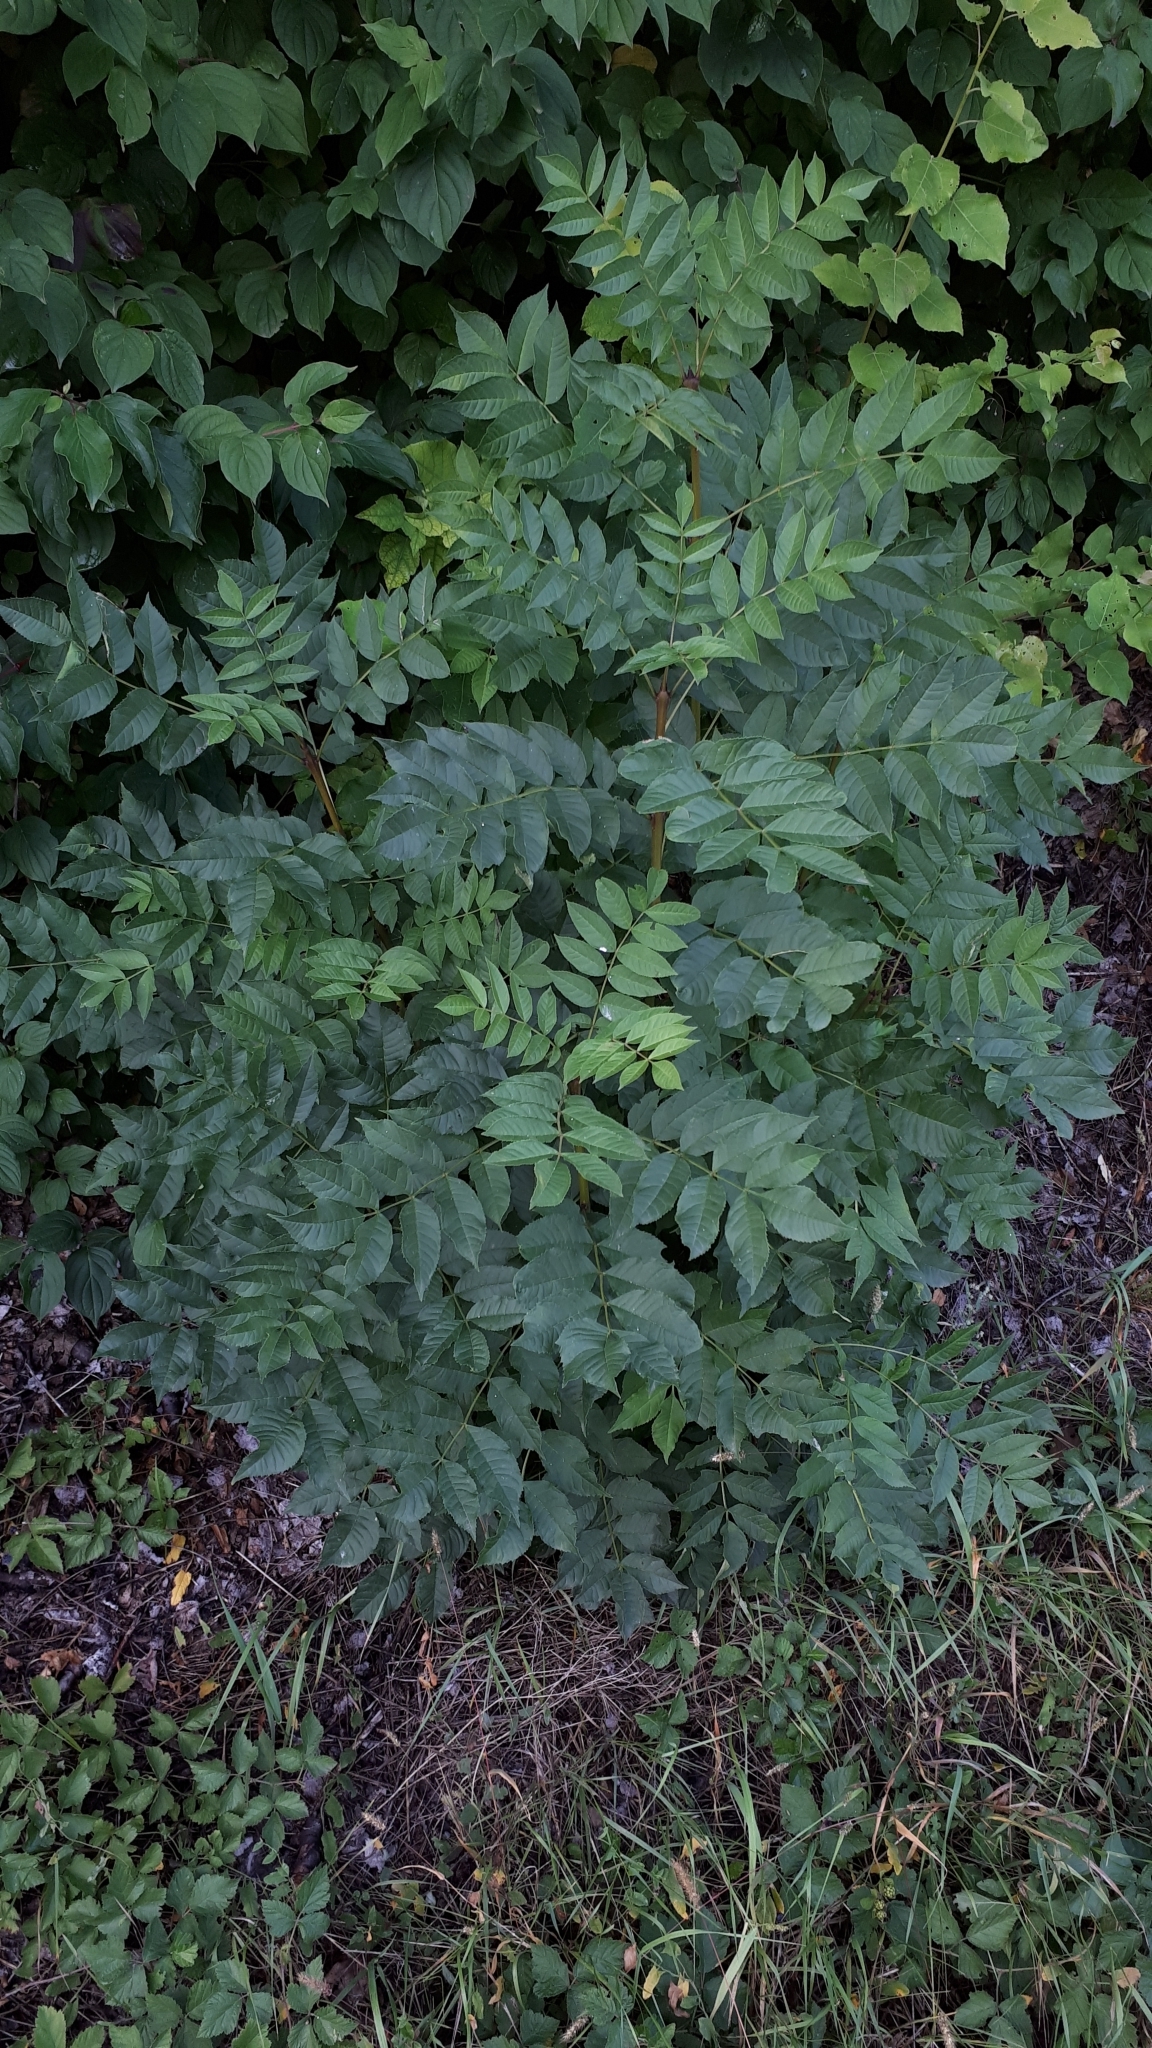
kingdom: Plantae
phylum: Tracheophyta
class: Magnoliopsida
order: Lamiales
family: Oleaceae
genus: Fraxinus
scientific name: Fraxinus excelsior
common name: European ash
